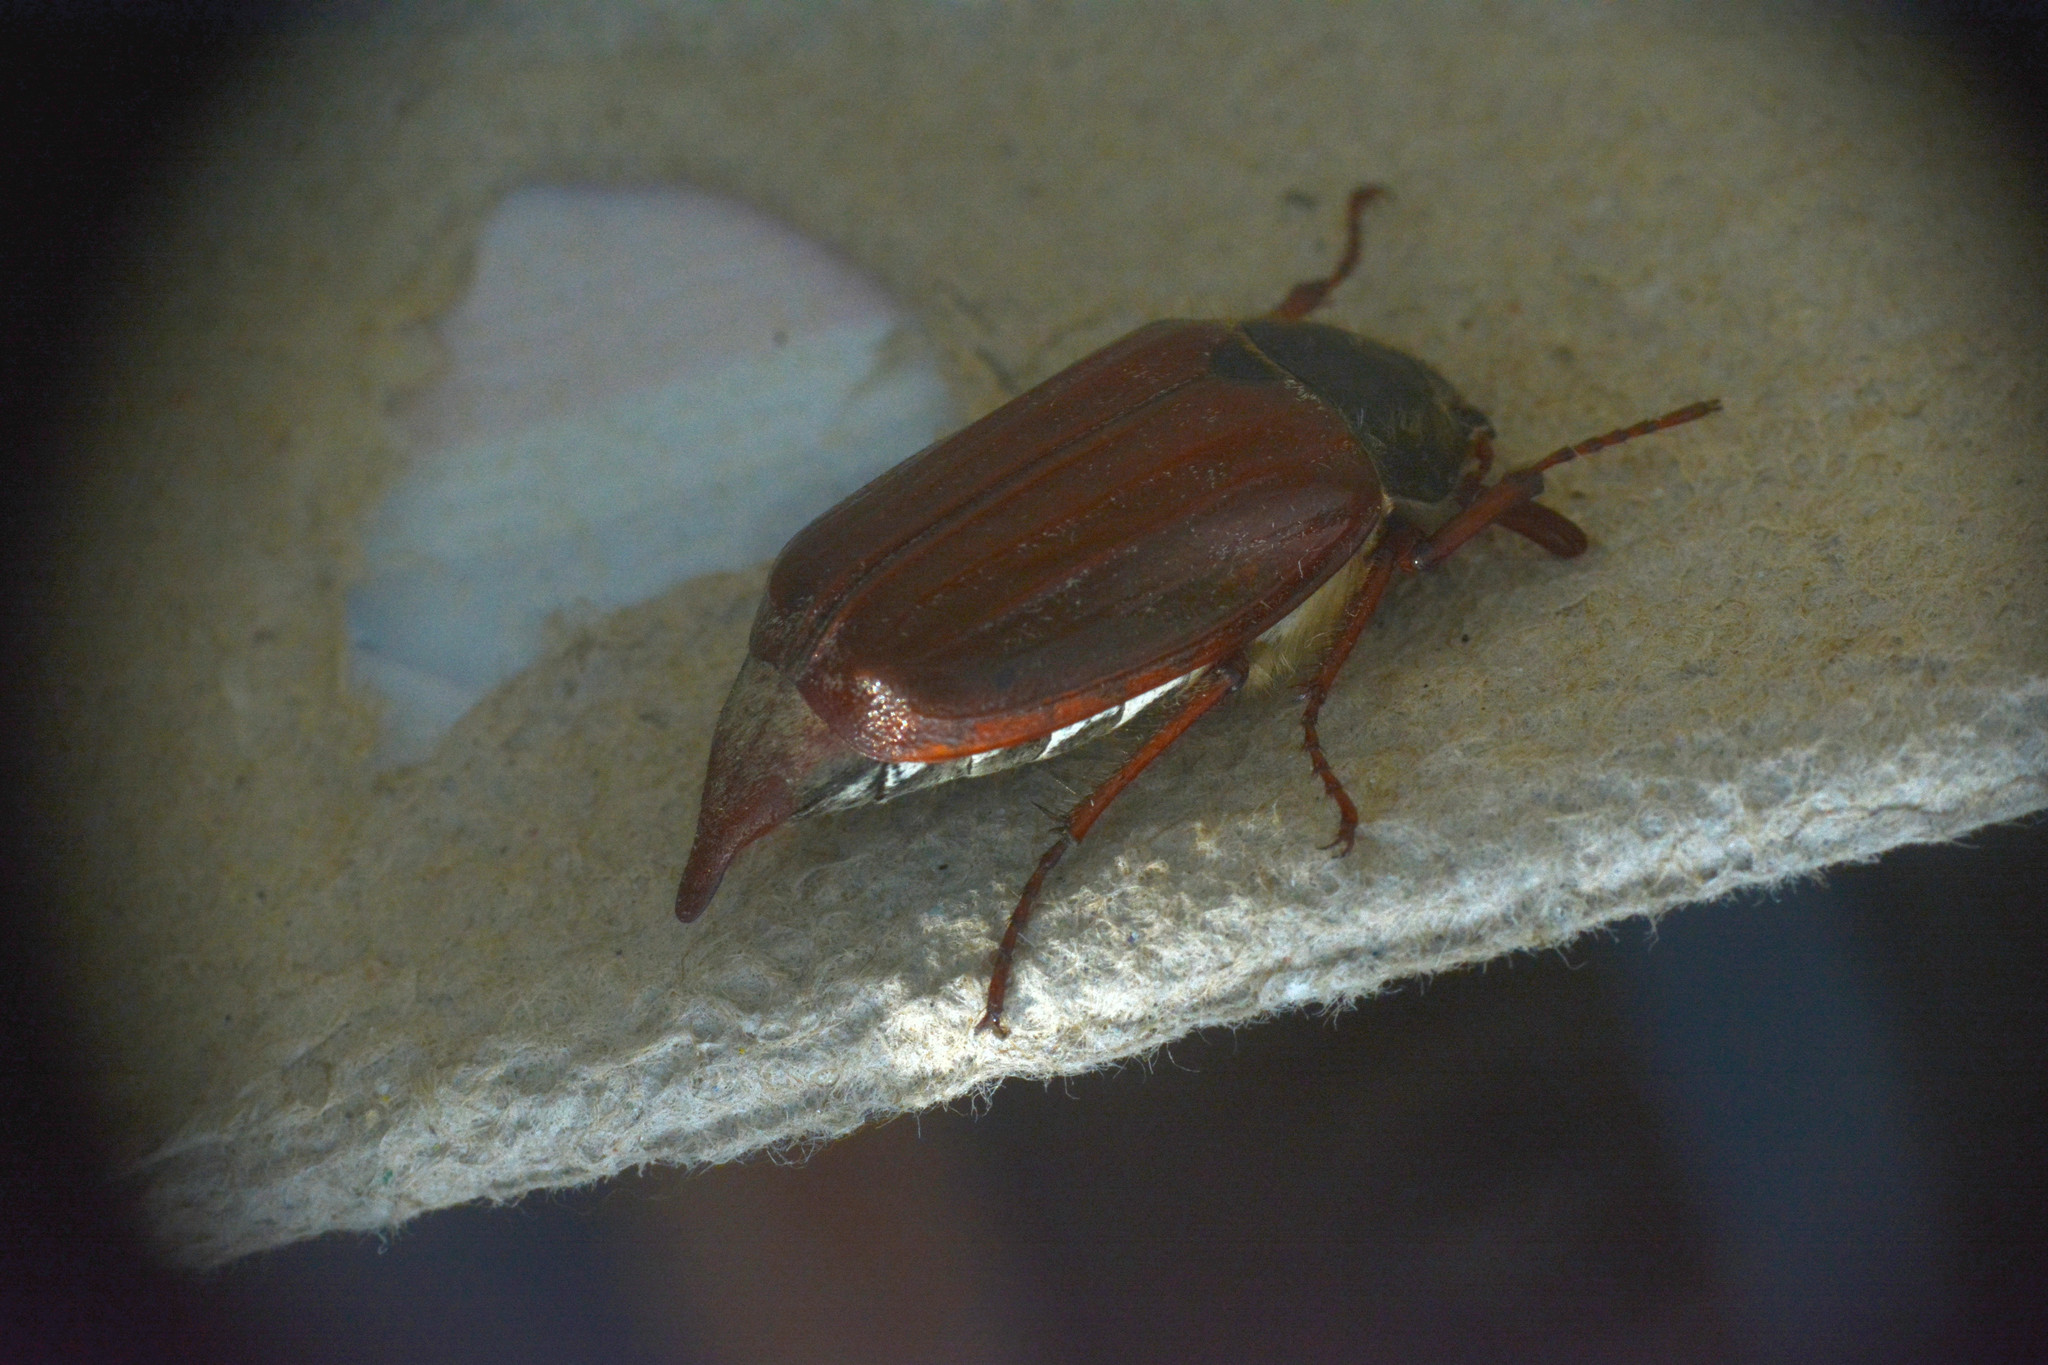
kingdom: Animalia
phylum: Arthropoda
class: Insecta
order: Coleoptera
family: Scarabaeidae
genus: Melolontha
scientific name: Melolontha melolontha
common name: Cockchafer maybeetle
